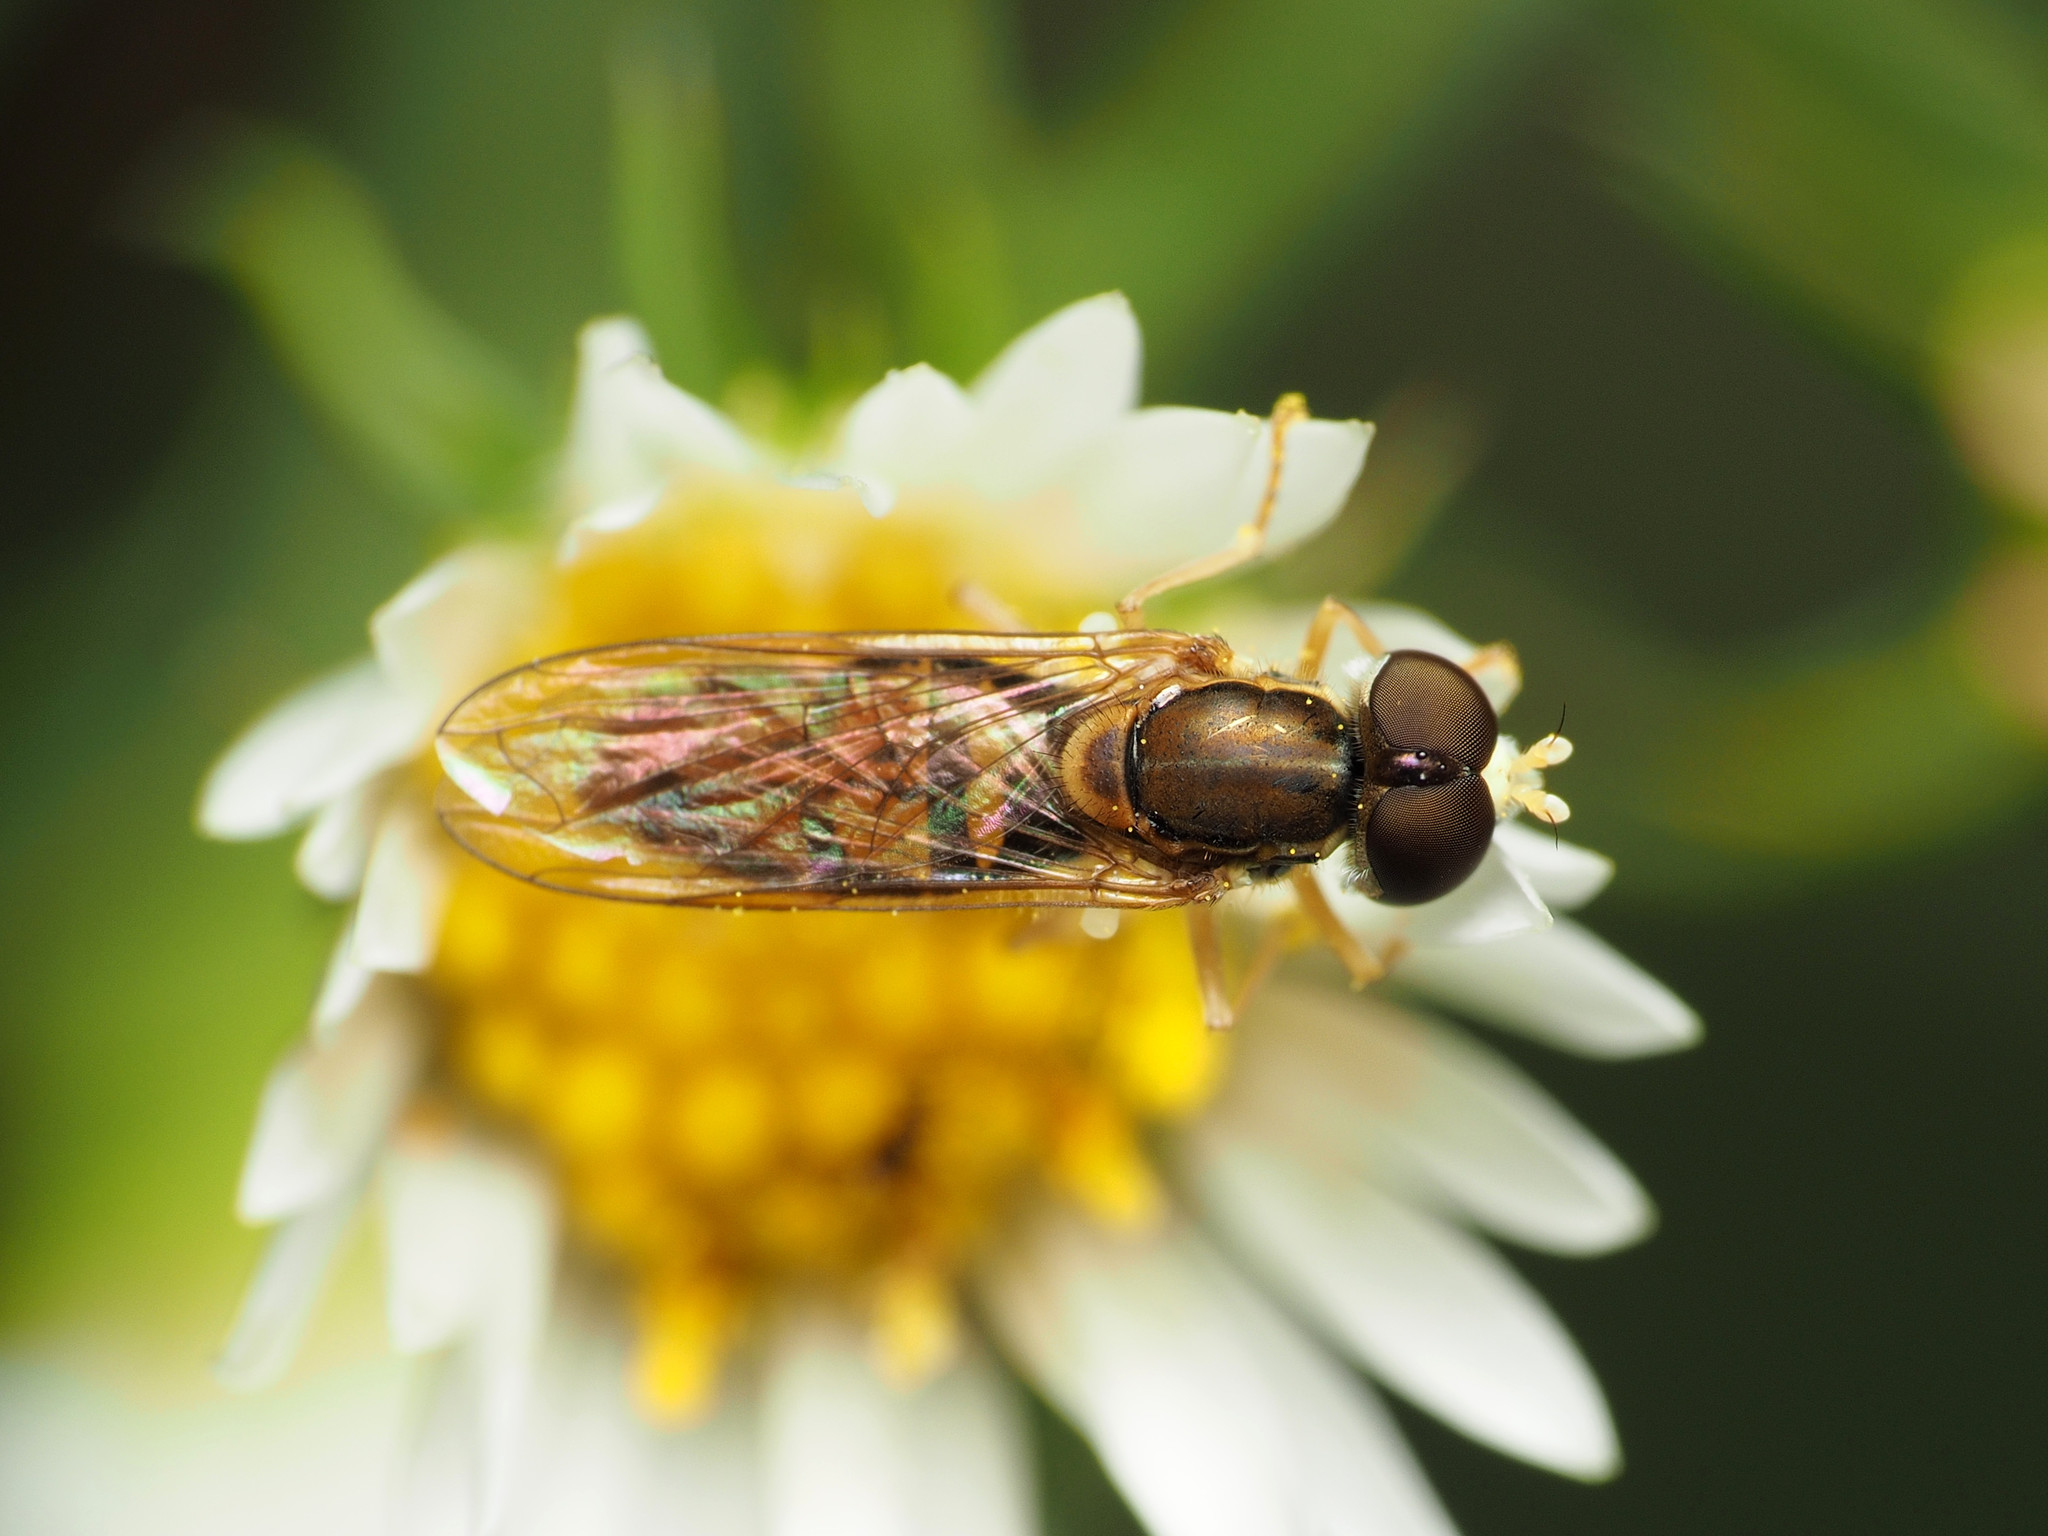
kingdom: Animalia
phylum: Arthropoda
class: Insecta
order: Diptera
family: Syrphidae
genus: Toxomerus
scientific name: Toxomerus marginatus
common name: Syrphid fly
